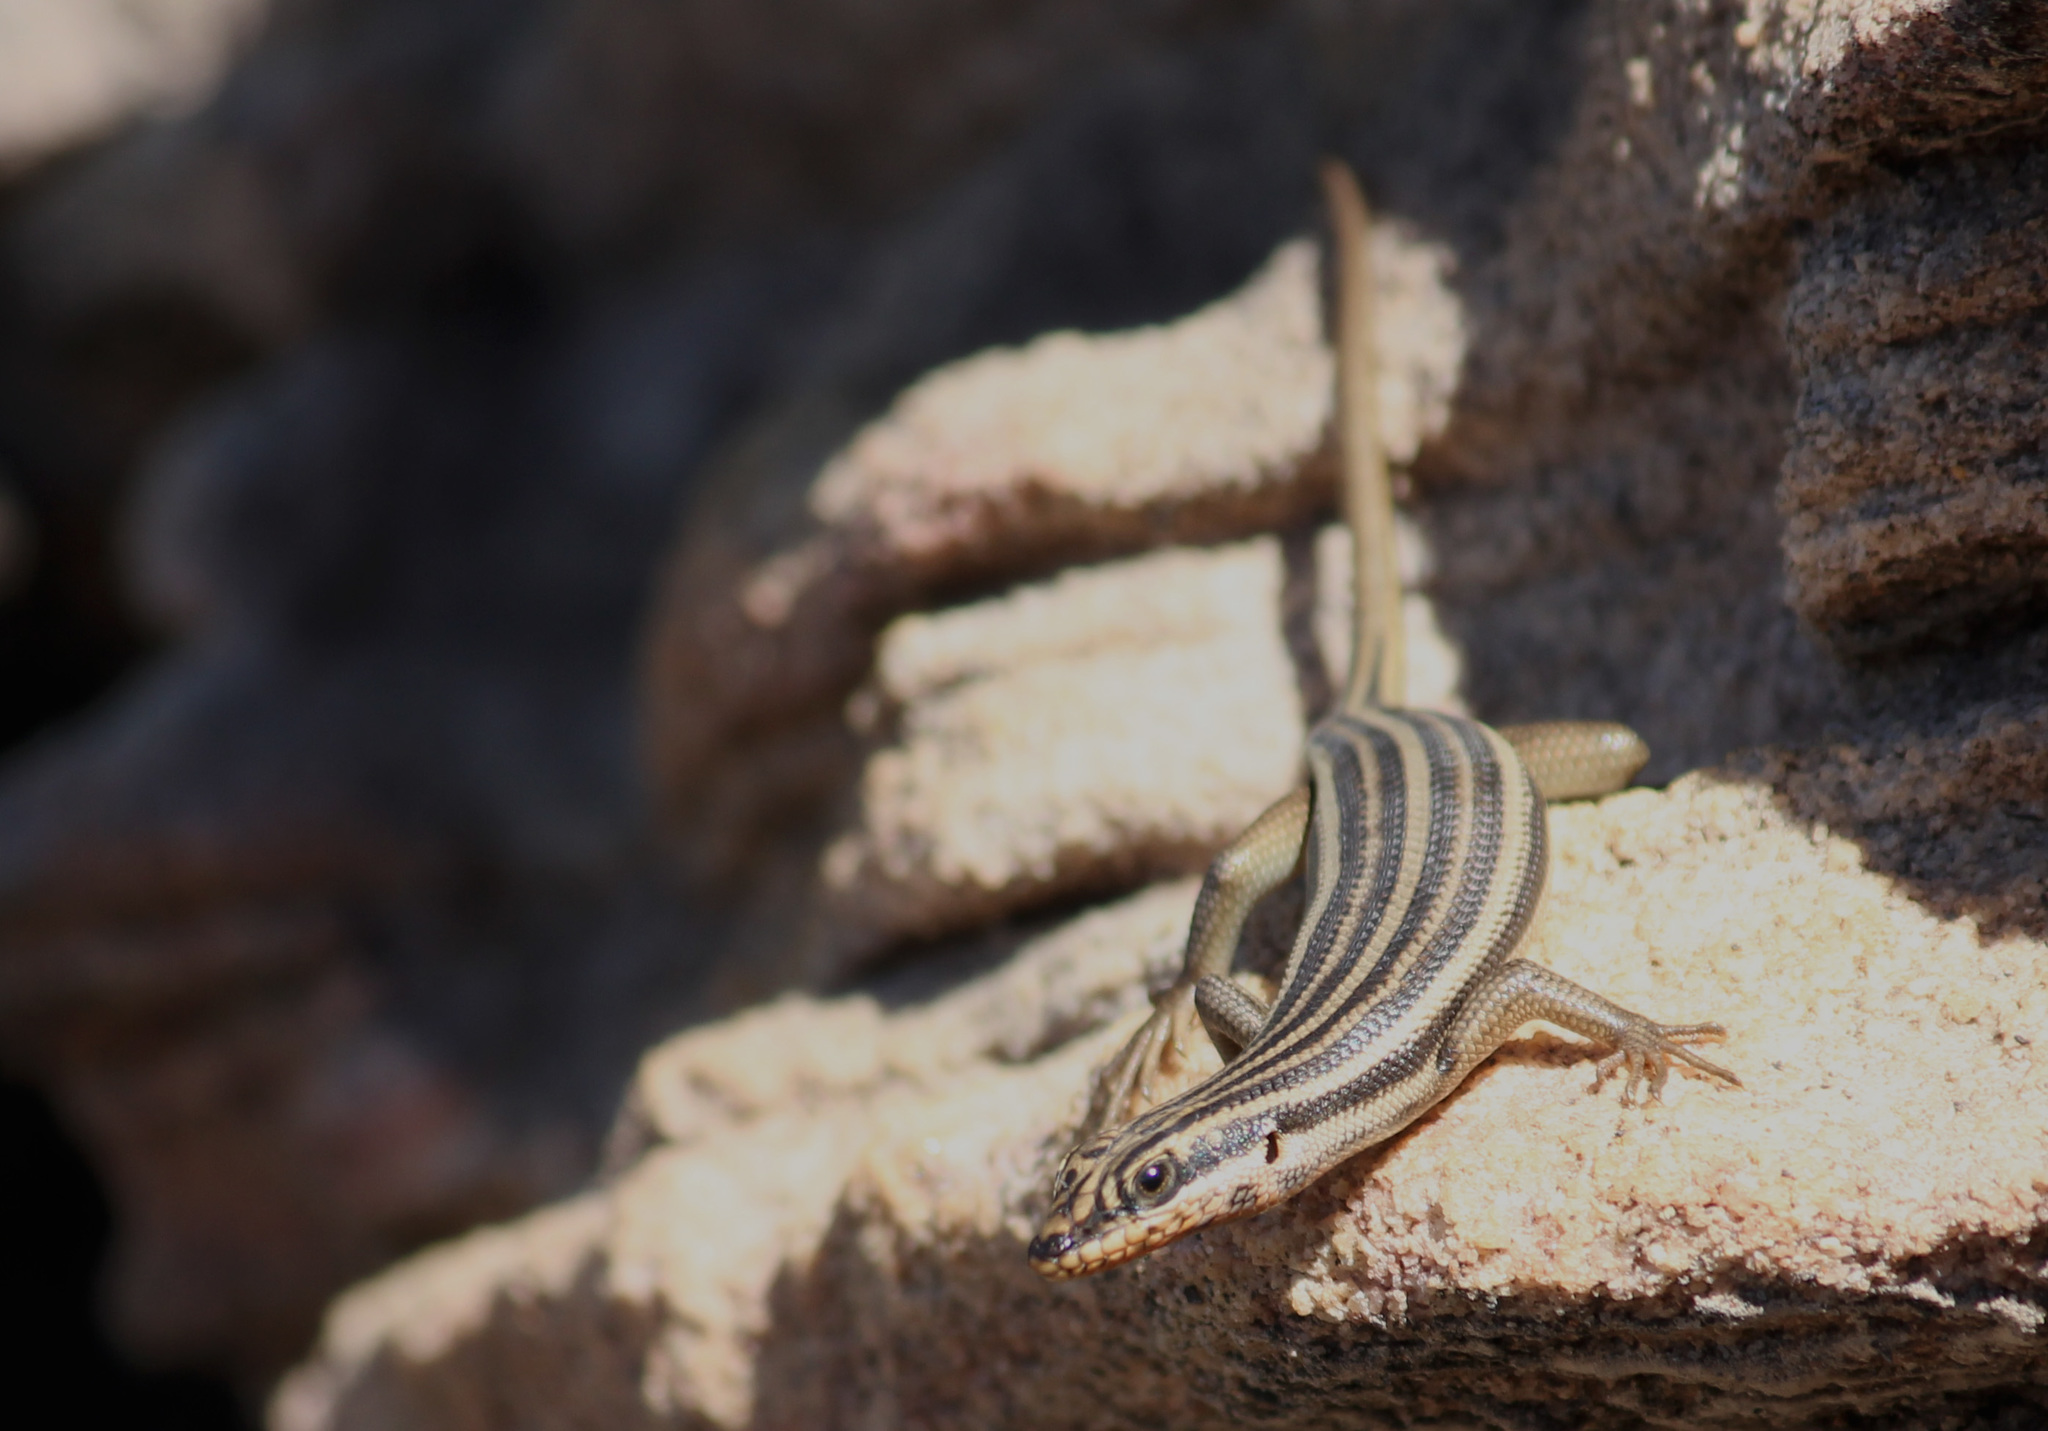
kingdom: Animalia
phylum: Chordata
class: Squamata
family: Scincidae
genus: Trachylepis
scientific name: Trachylepis sulcata
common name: Western rock skink
